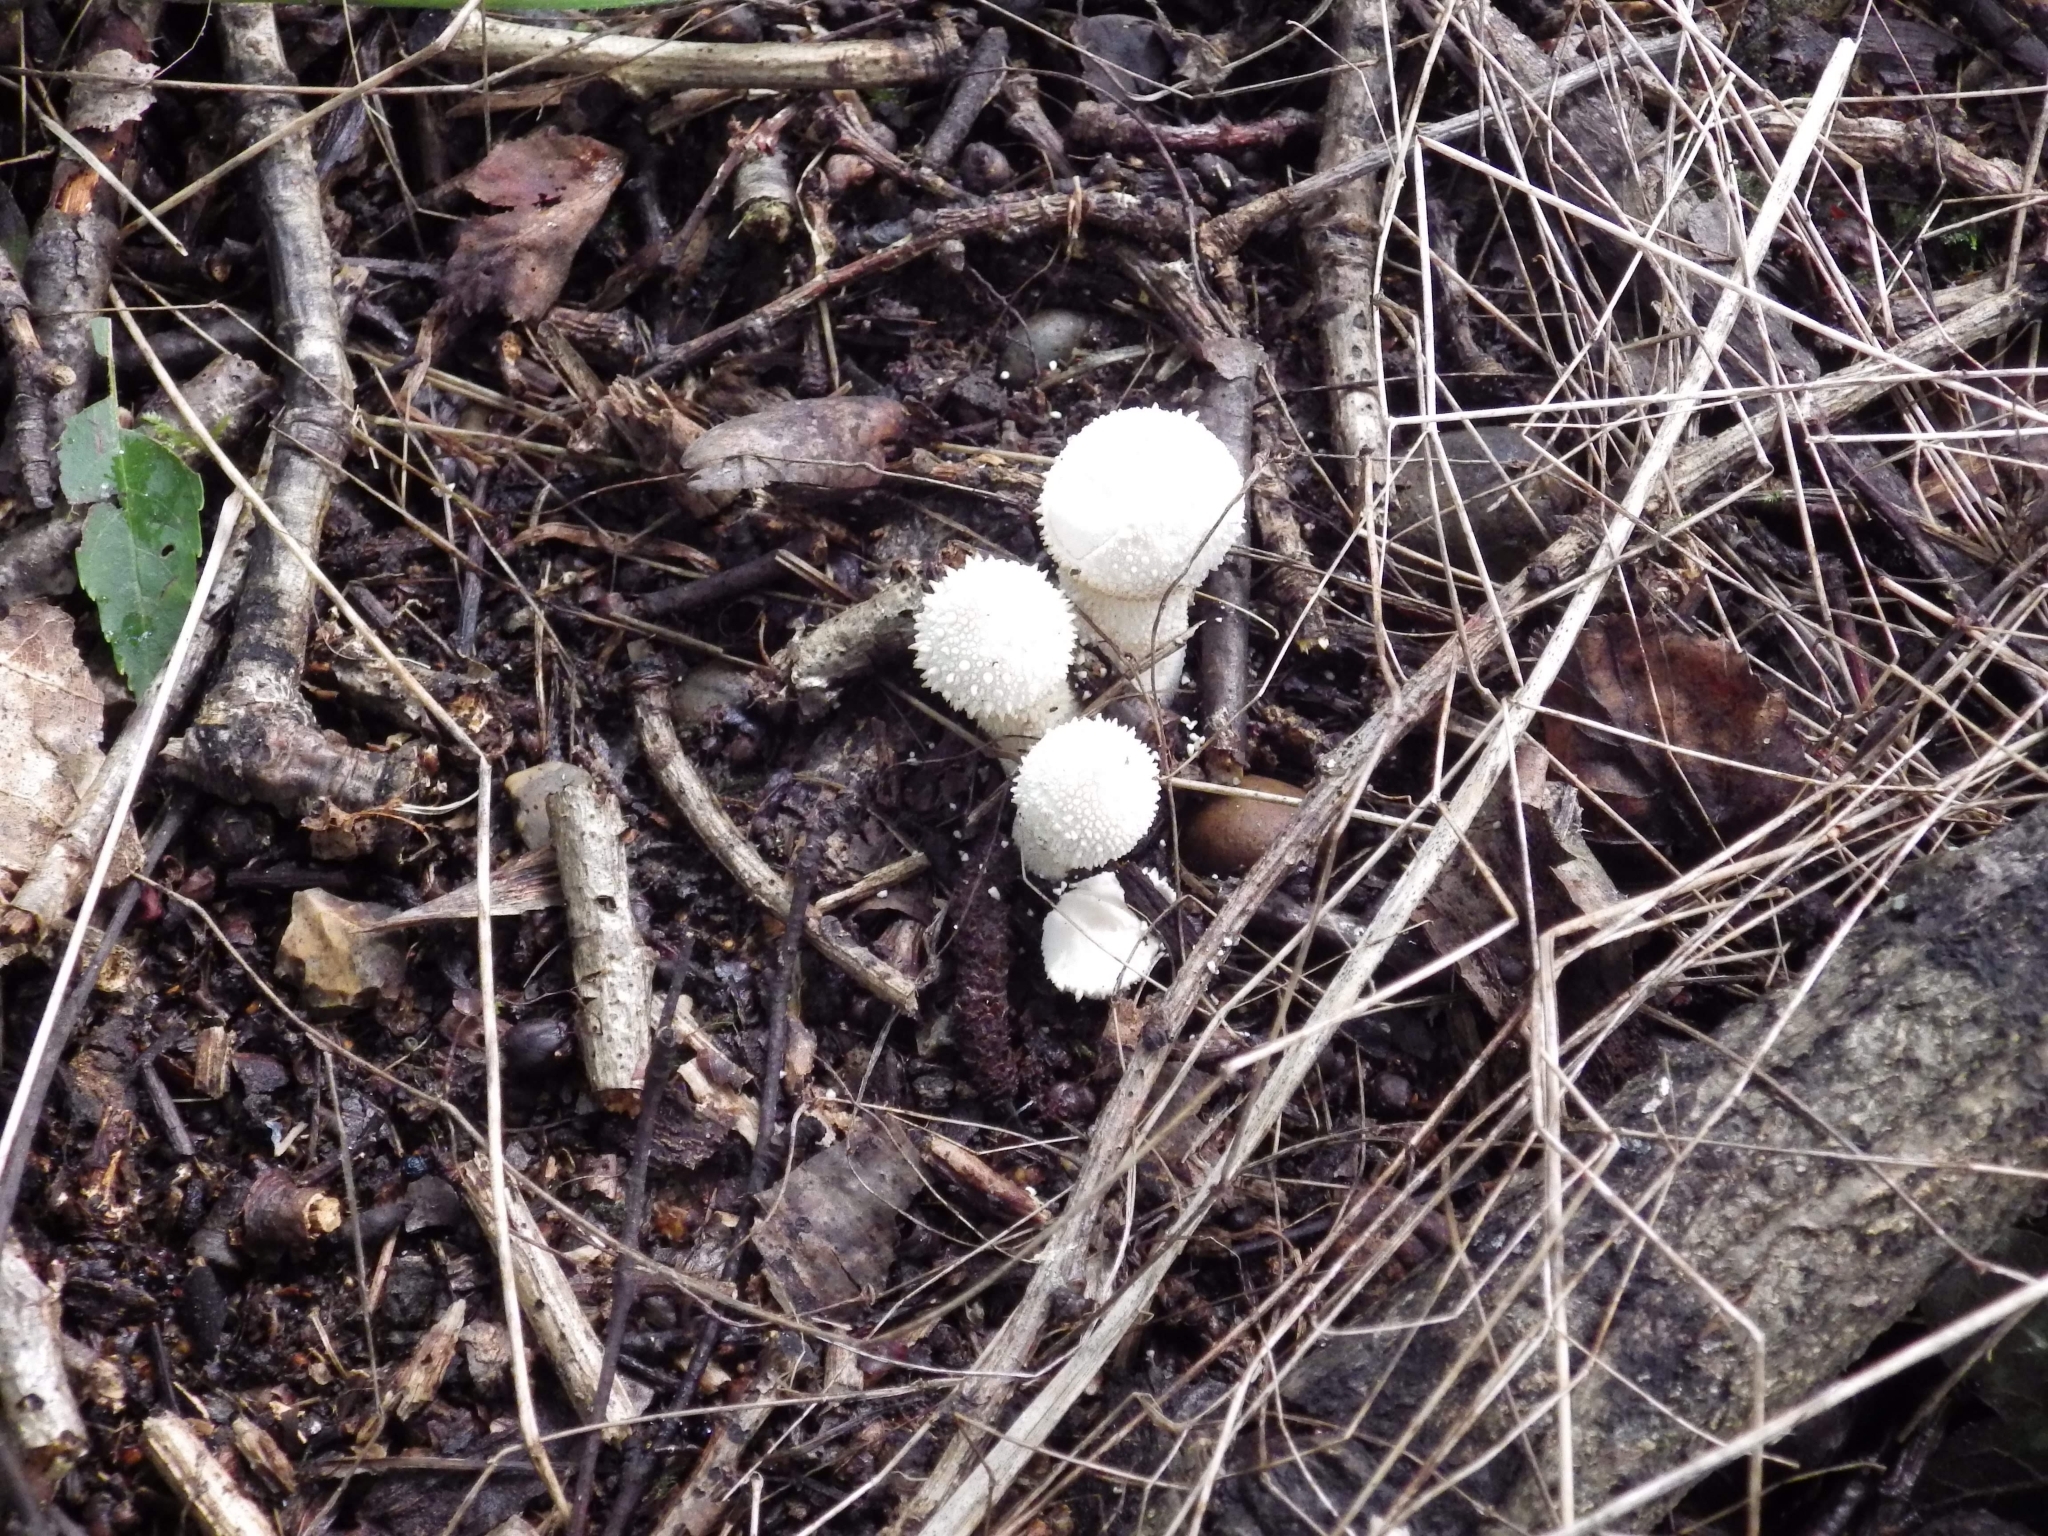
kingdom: Fungi
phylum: Basidiomycota
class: Agaricomycetes
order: Agaricales
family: Lycoperdaceae
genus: Lycoperdon
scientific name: Lycoperdon perlatum
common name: Common puffball
